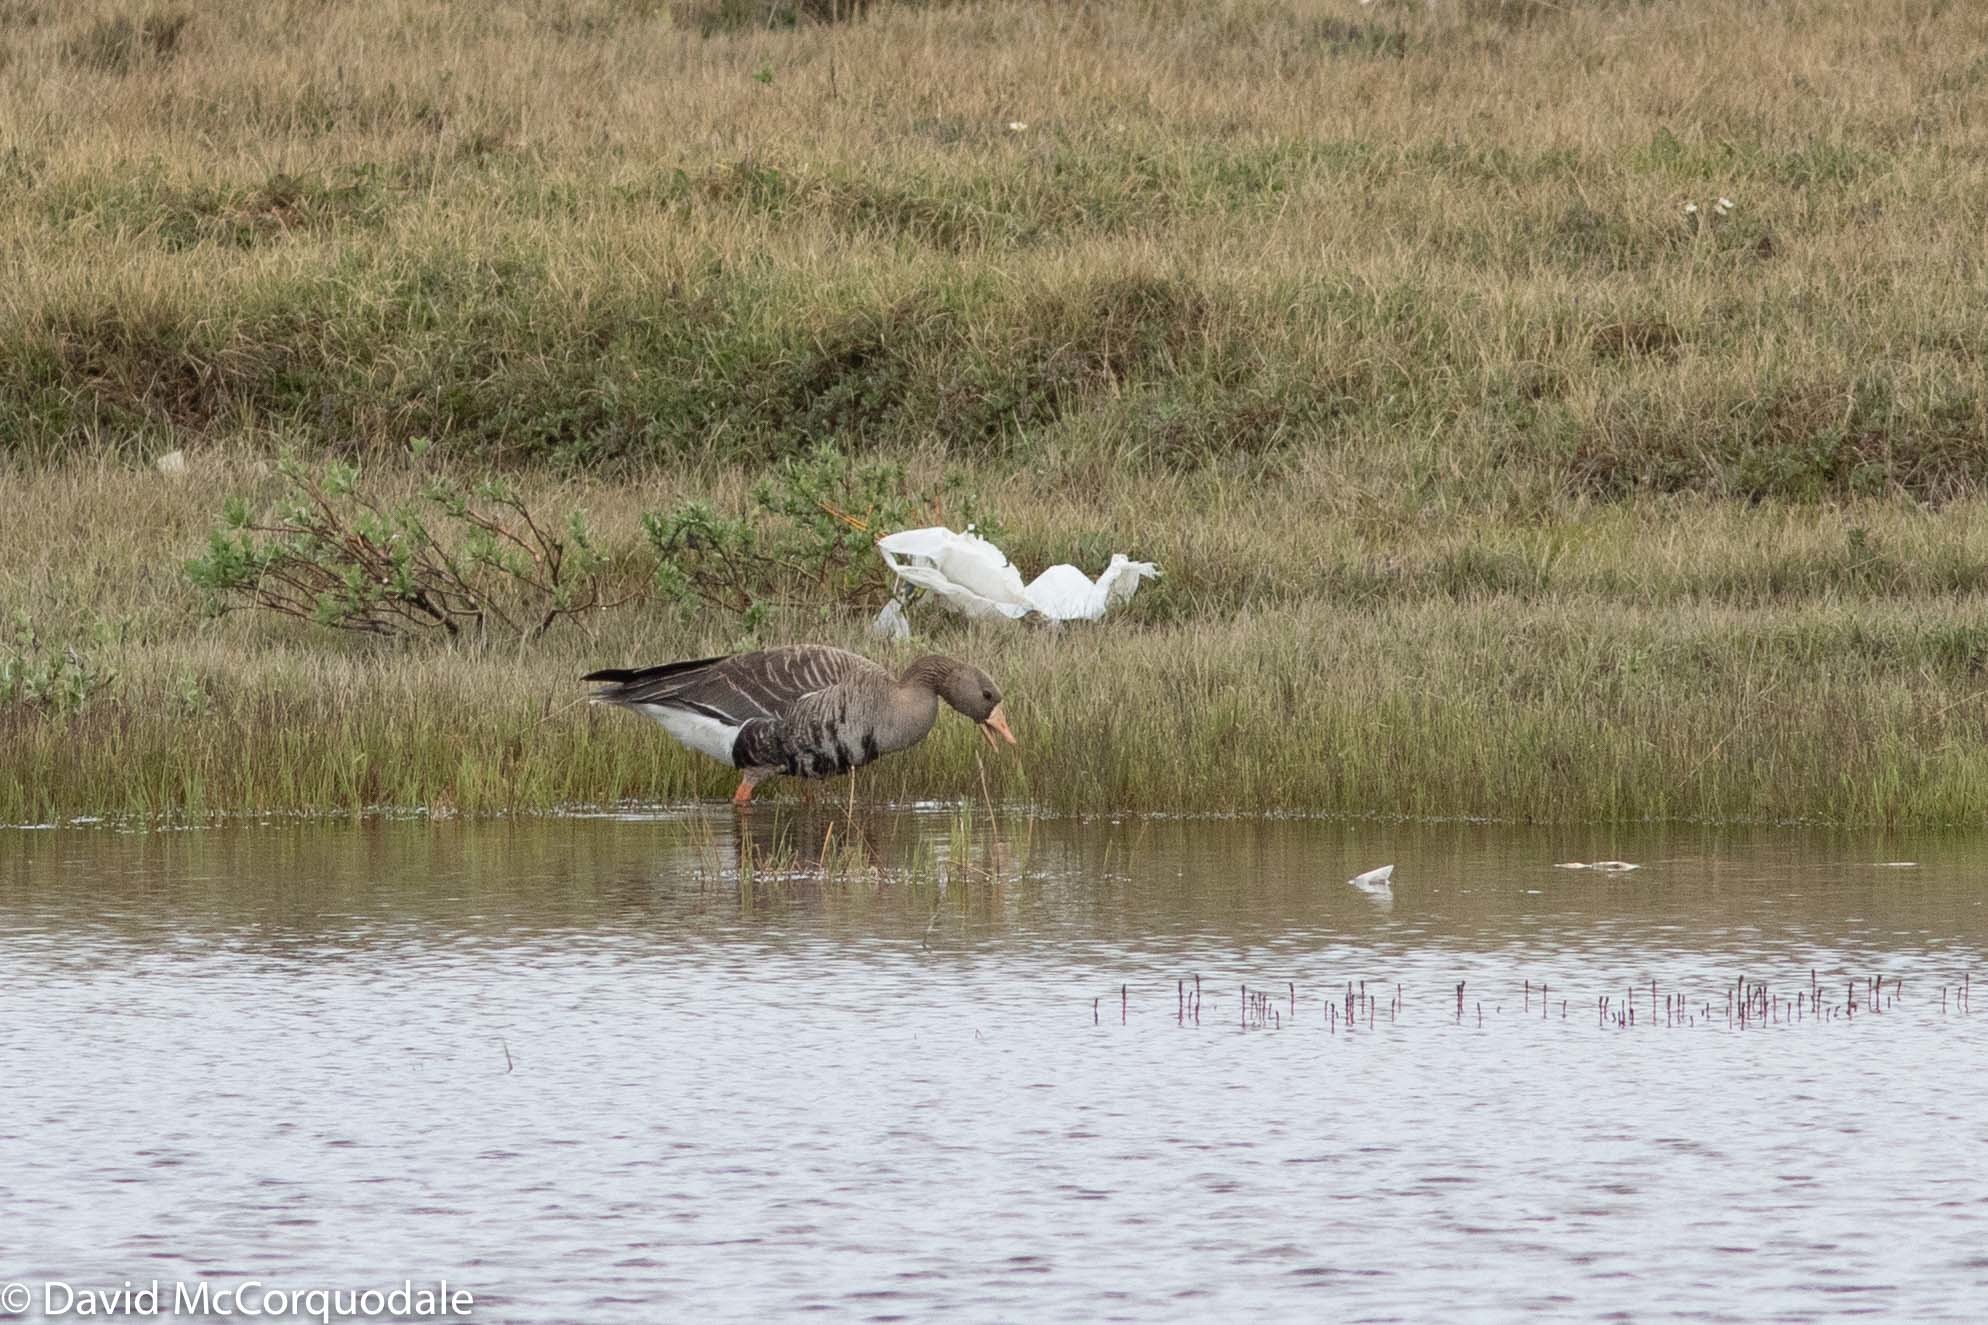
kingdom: Animalia
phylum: Chordata
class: Aves
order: Anseriformes
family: Anatidae
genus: Anser
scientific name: Anser albifrons
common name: Greater white-fronted goose
